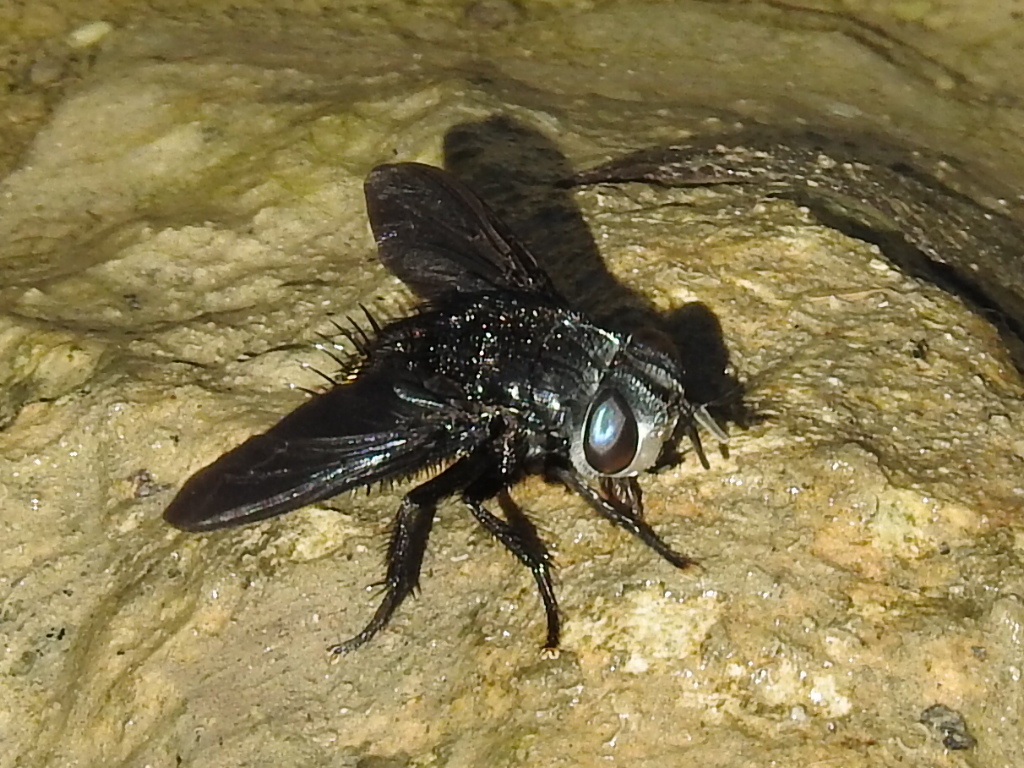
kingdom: Animalia
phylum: Arthropoda
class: Insecta
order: Diptera
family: Tachinidae
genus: Belvosia
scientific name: Belvosia borealis
